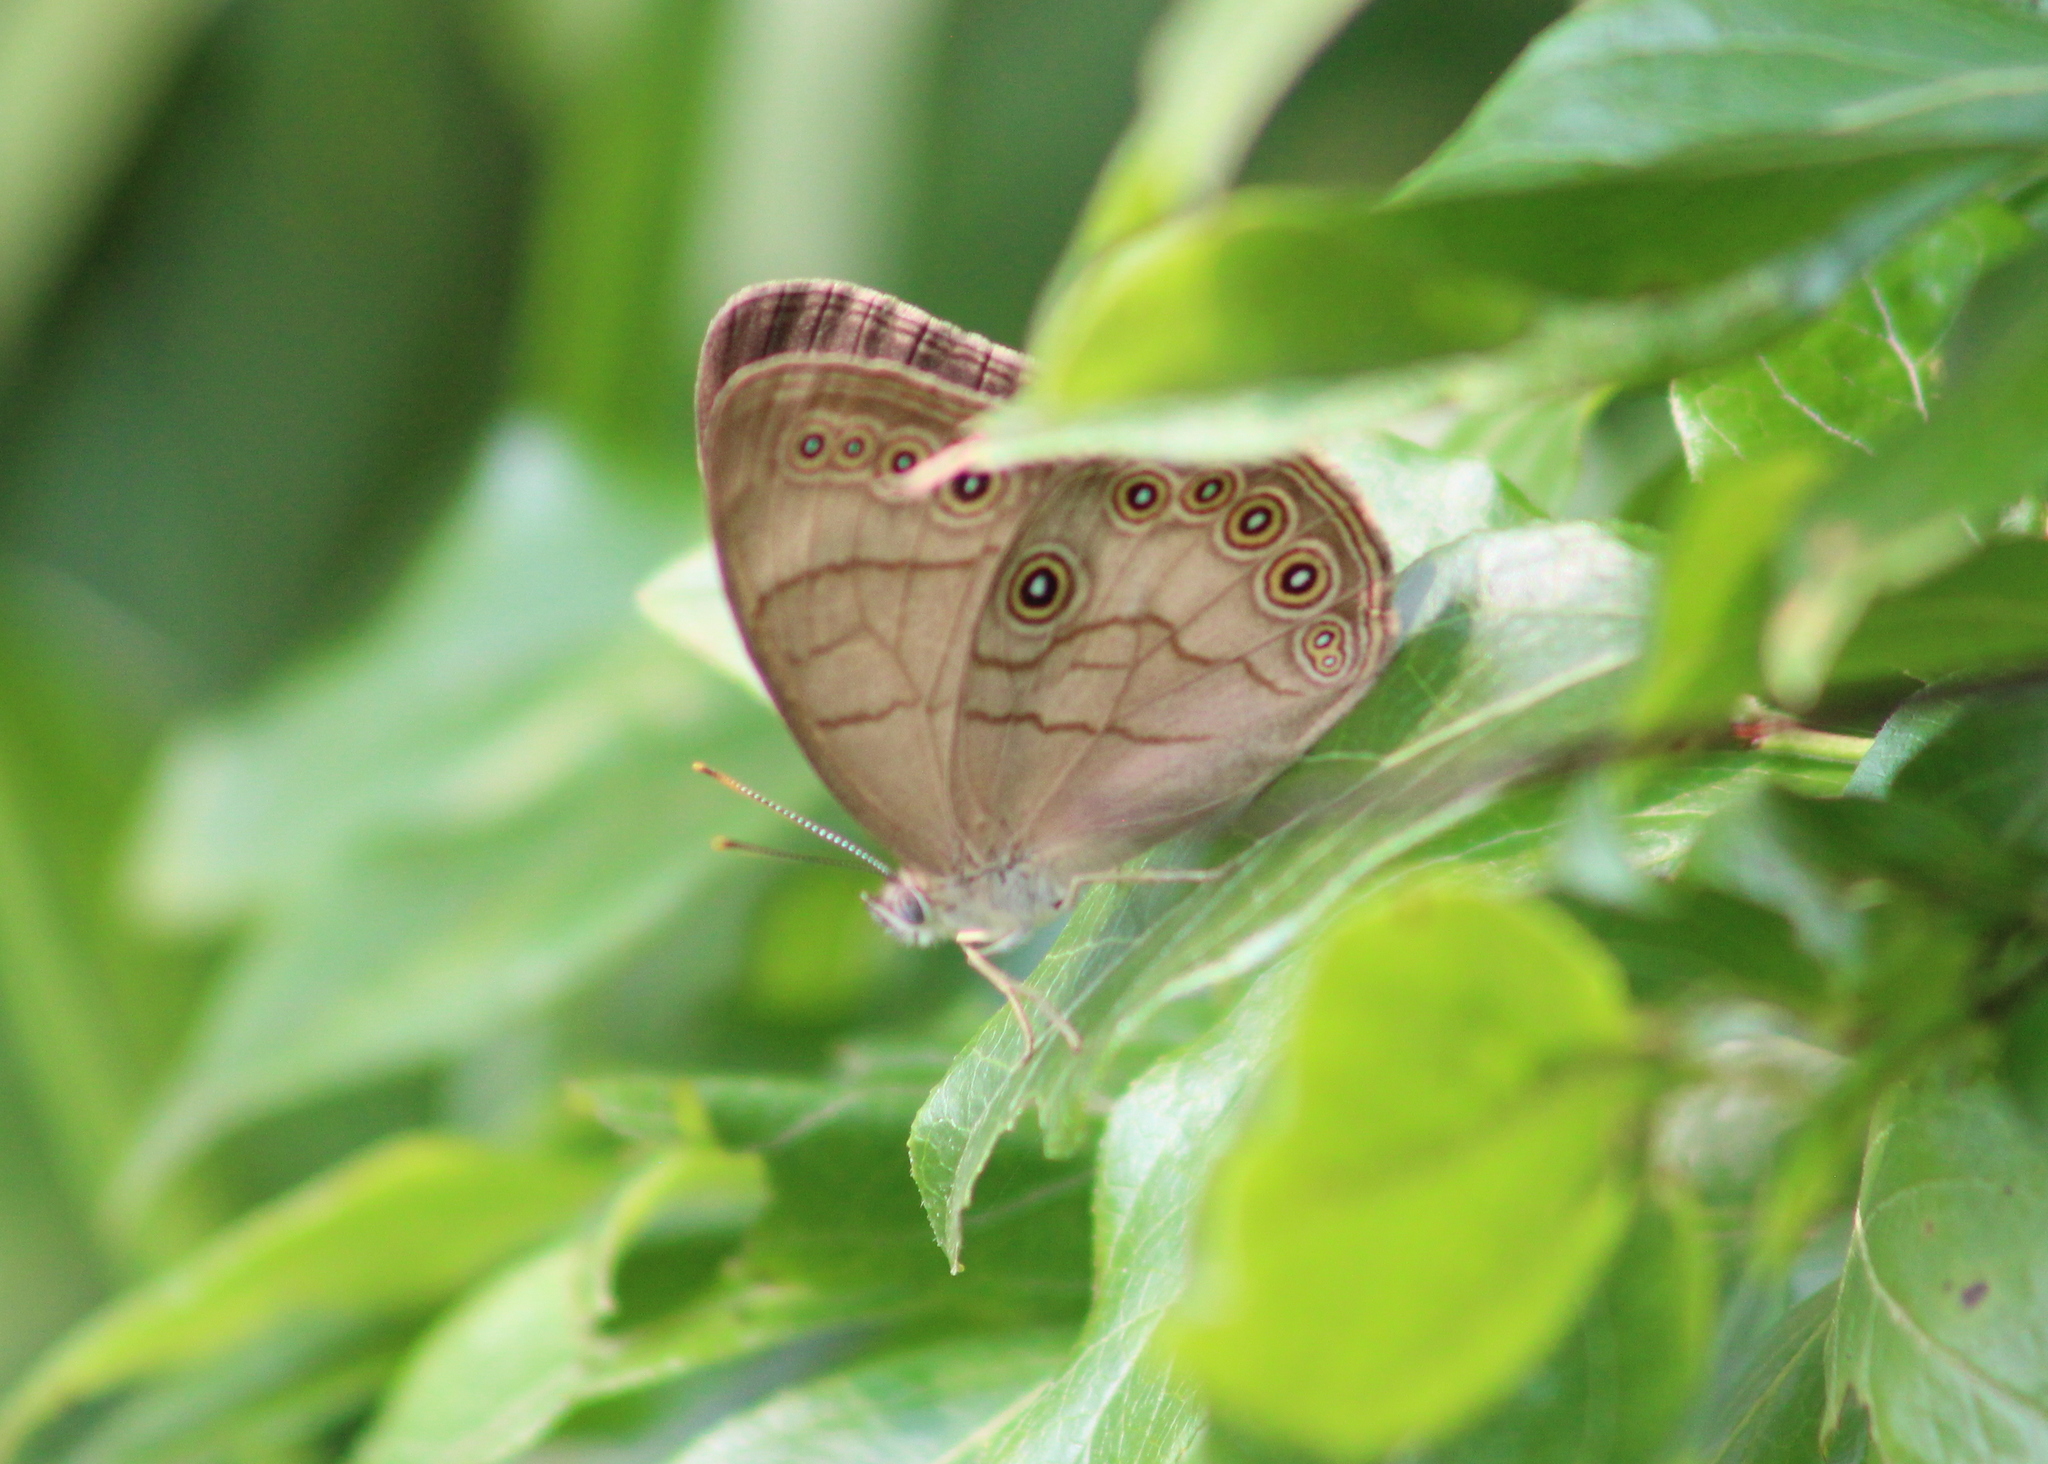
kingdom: Animalia
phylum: Arthropoda
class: Insecta
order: Lepidoptera
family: Nymphalidae
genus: Lethe
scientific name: Lethe eurydice
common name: Eyed brown
